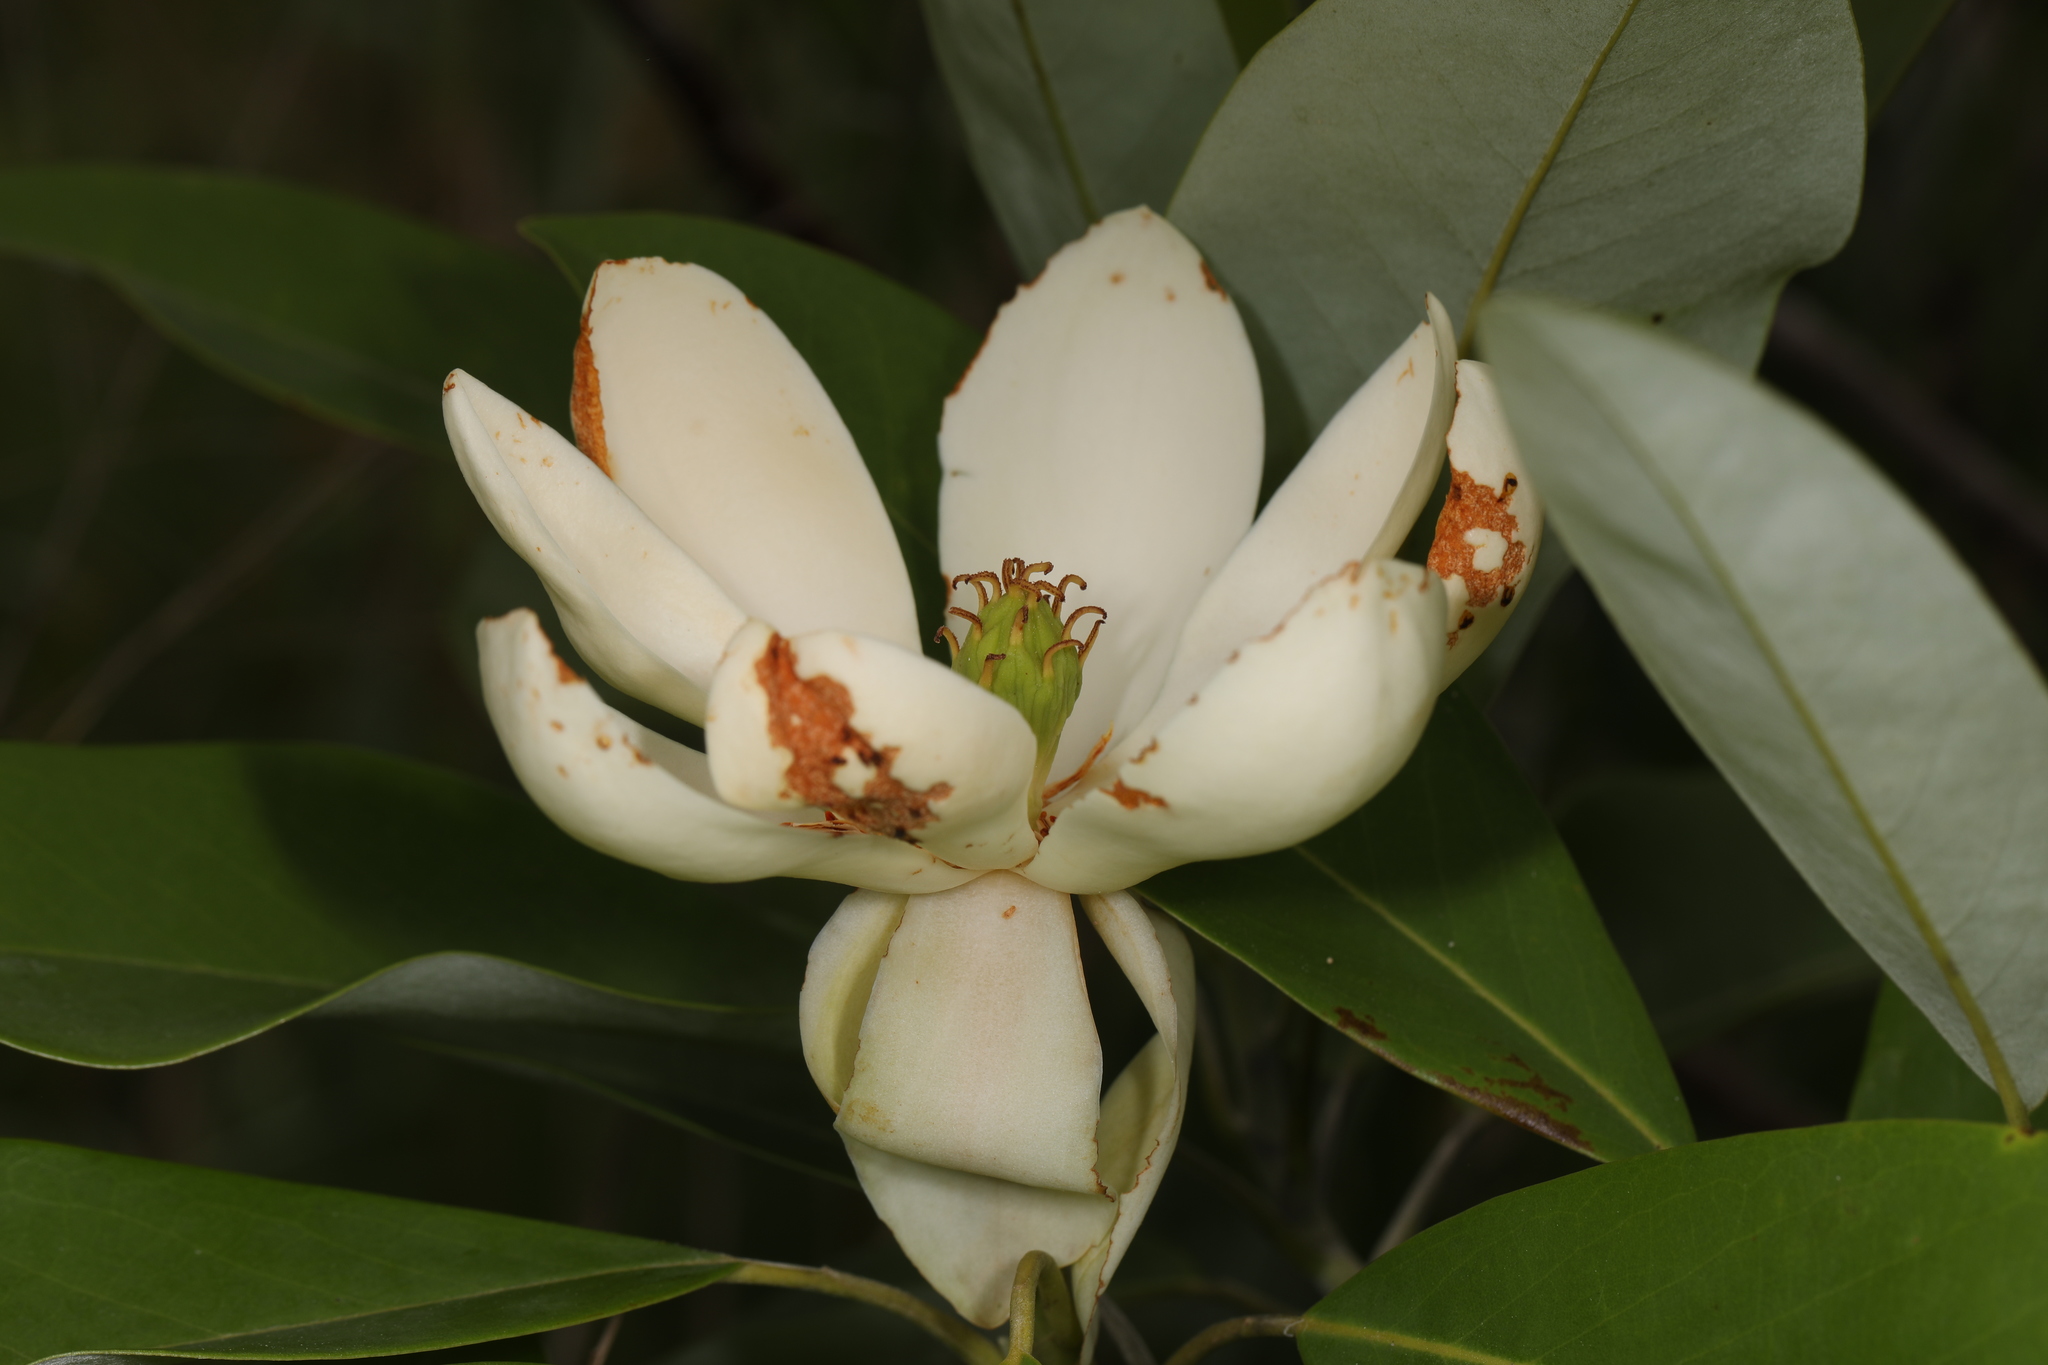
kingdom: Plantae
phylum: Tracheophyta
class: Magnoliopsida
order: Magnoliales
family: Magnoliaceae
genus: Magnolia
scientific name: Magnolia virginiana
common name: Swamp bay
